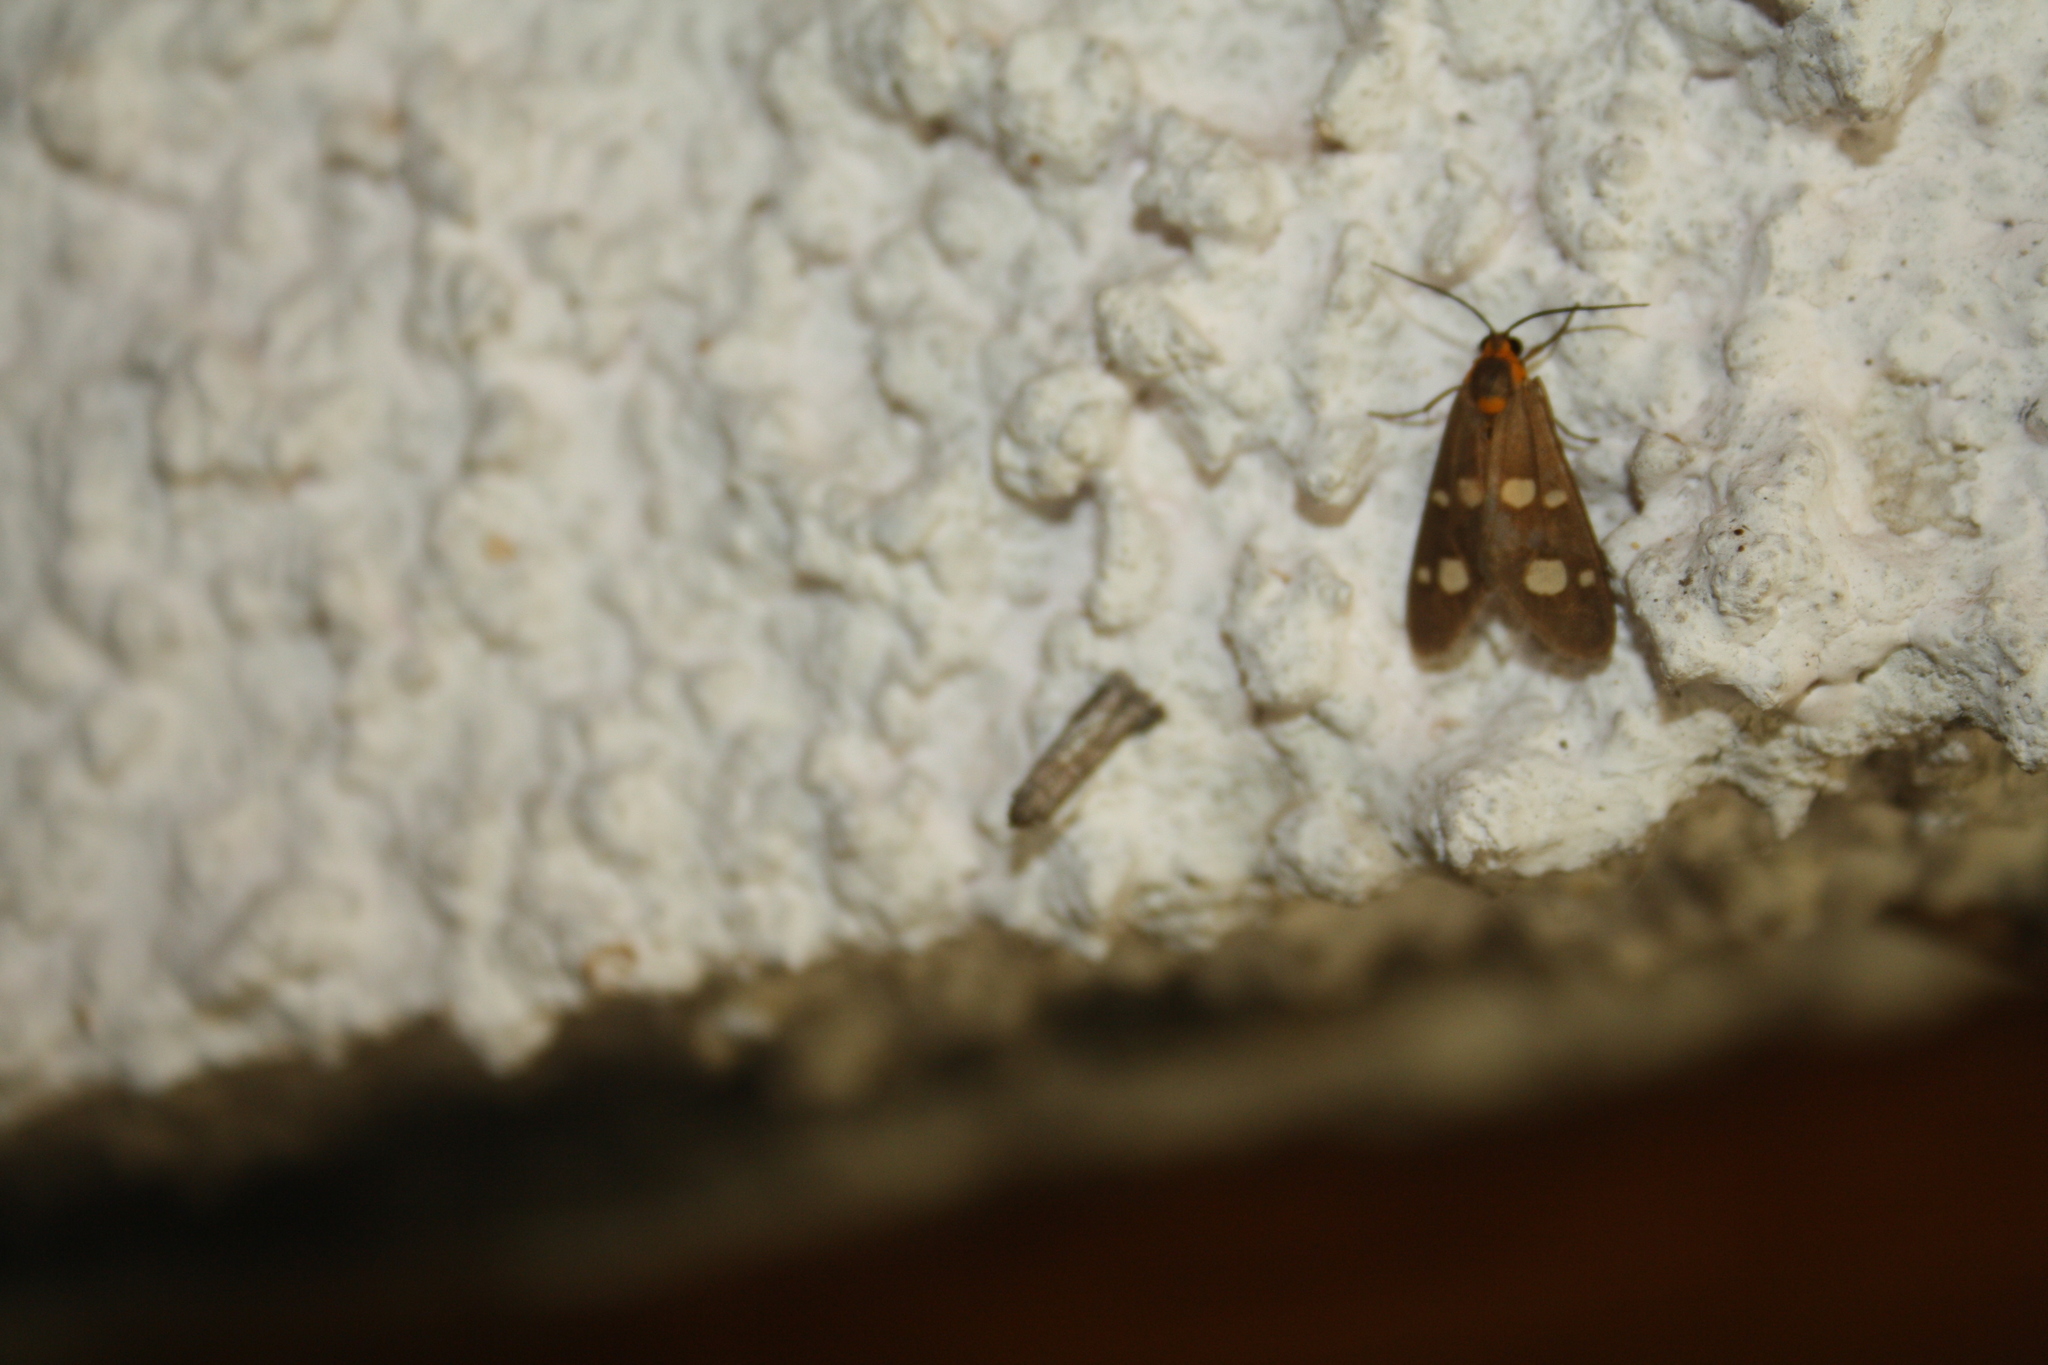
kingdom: Animalia
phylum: Arthropoda
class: Insecta
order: Lepidoptera
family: Erebidae
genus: Dysauxes
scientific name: Dysauxes punctata
